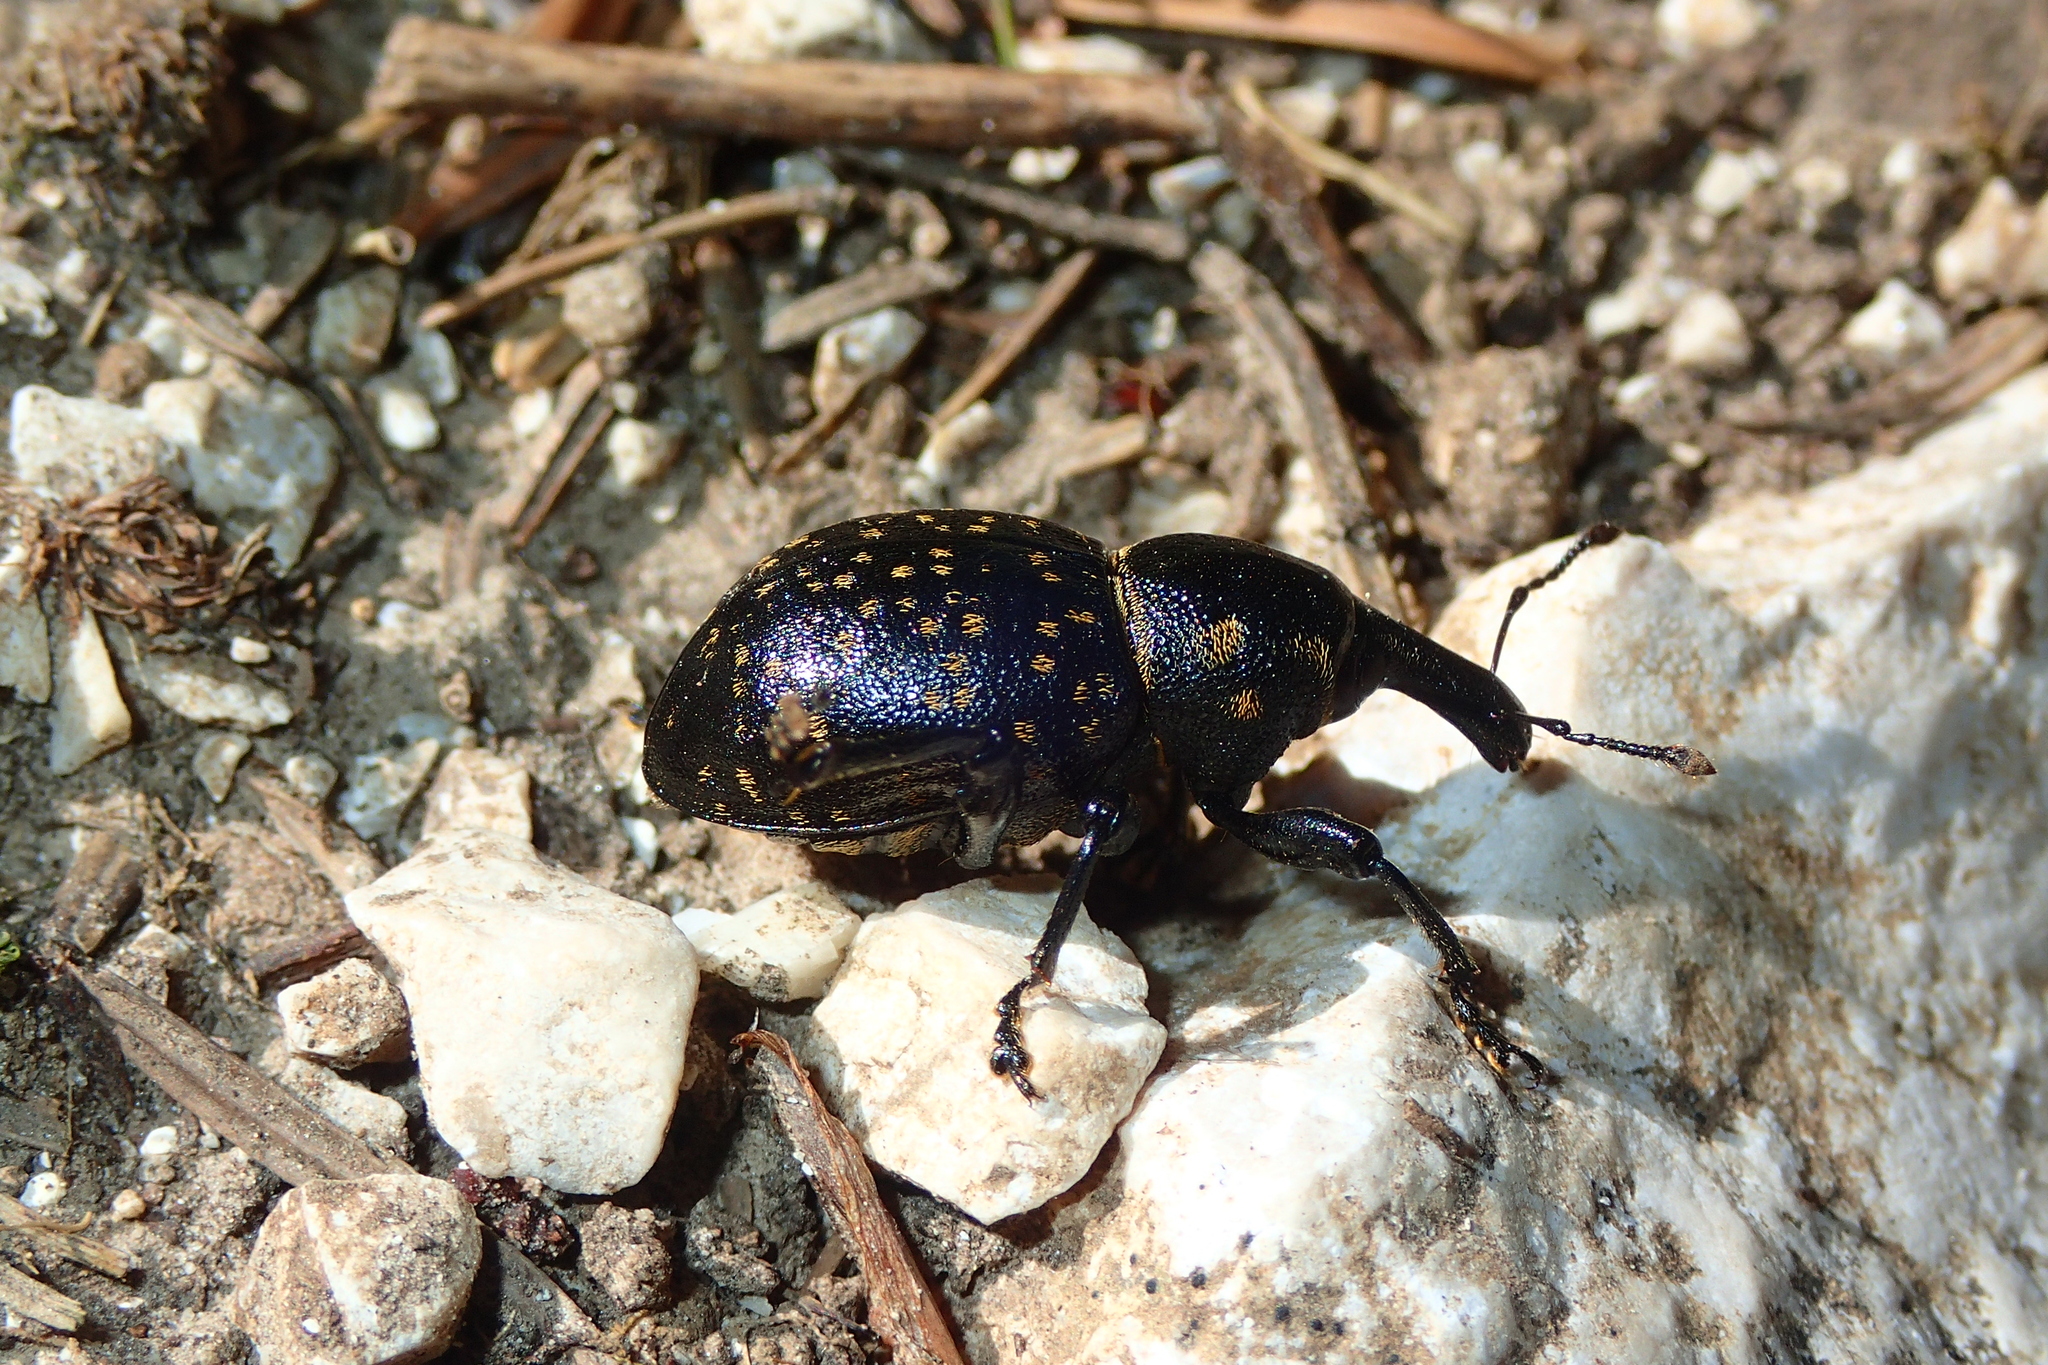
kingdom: Animalia
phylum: Arthropoda
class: Insecta
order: Coleoptera
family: Curculionidae
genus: Liparus
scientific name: Liparus germanus
